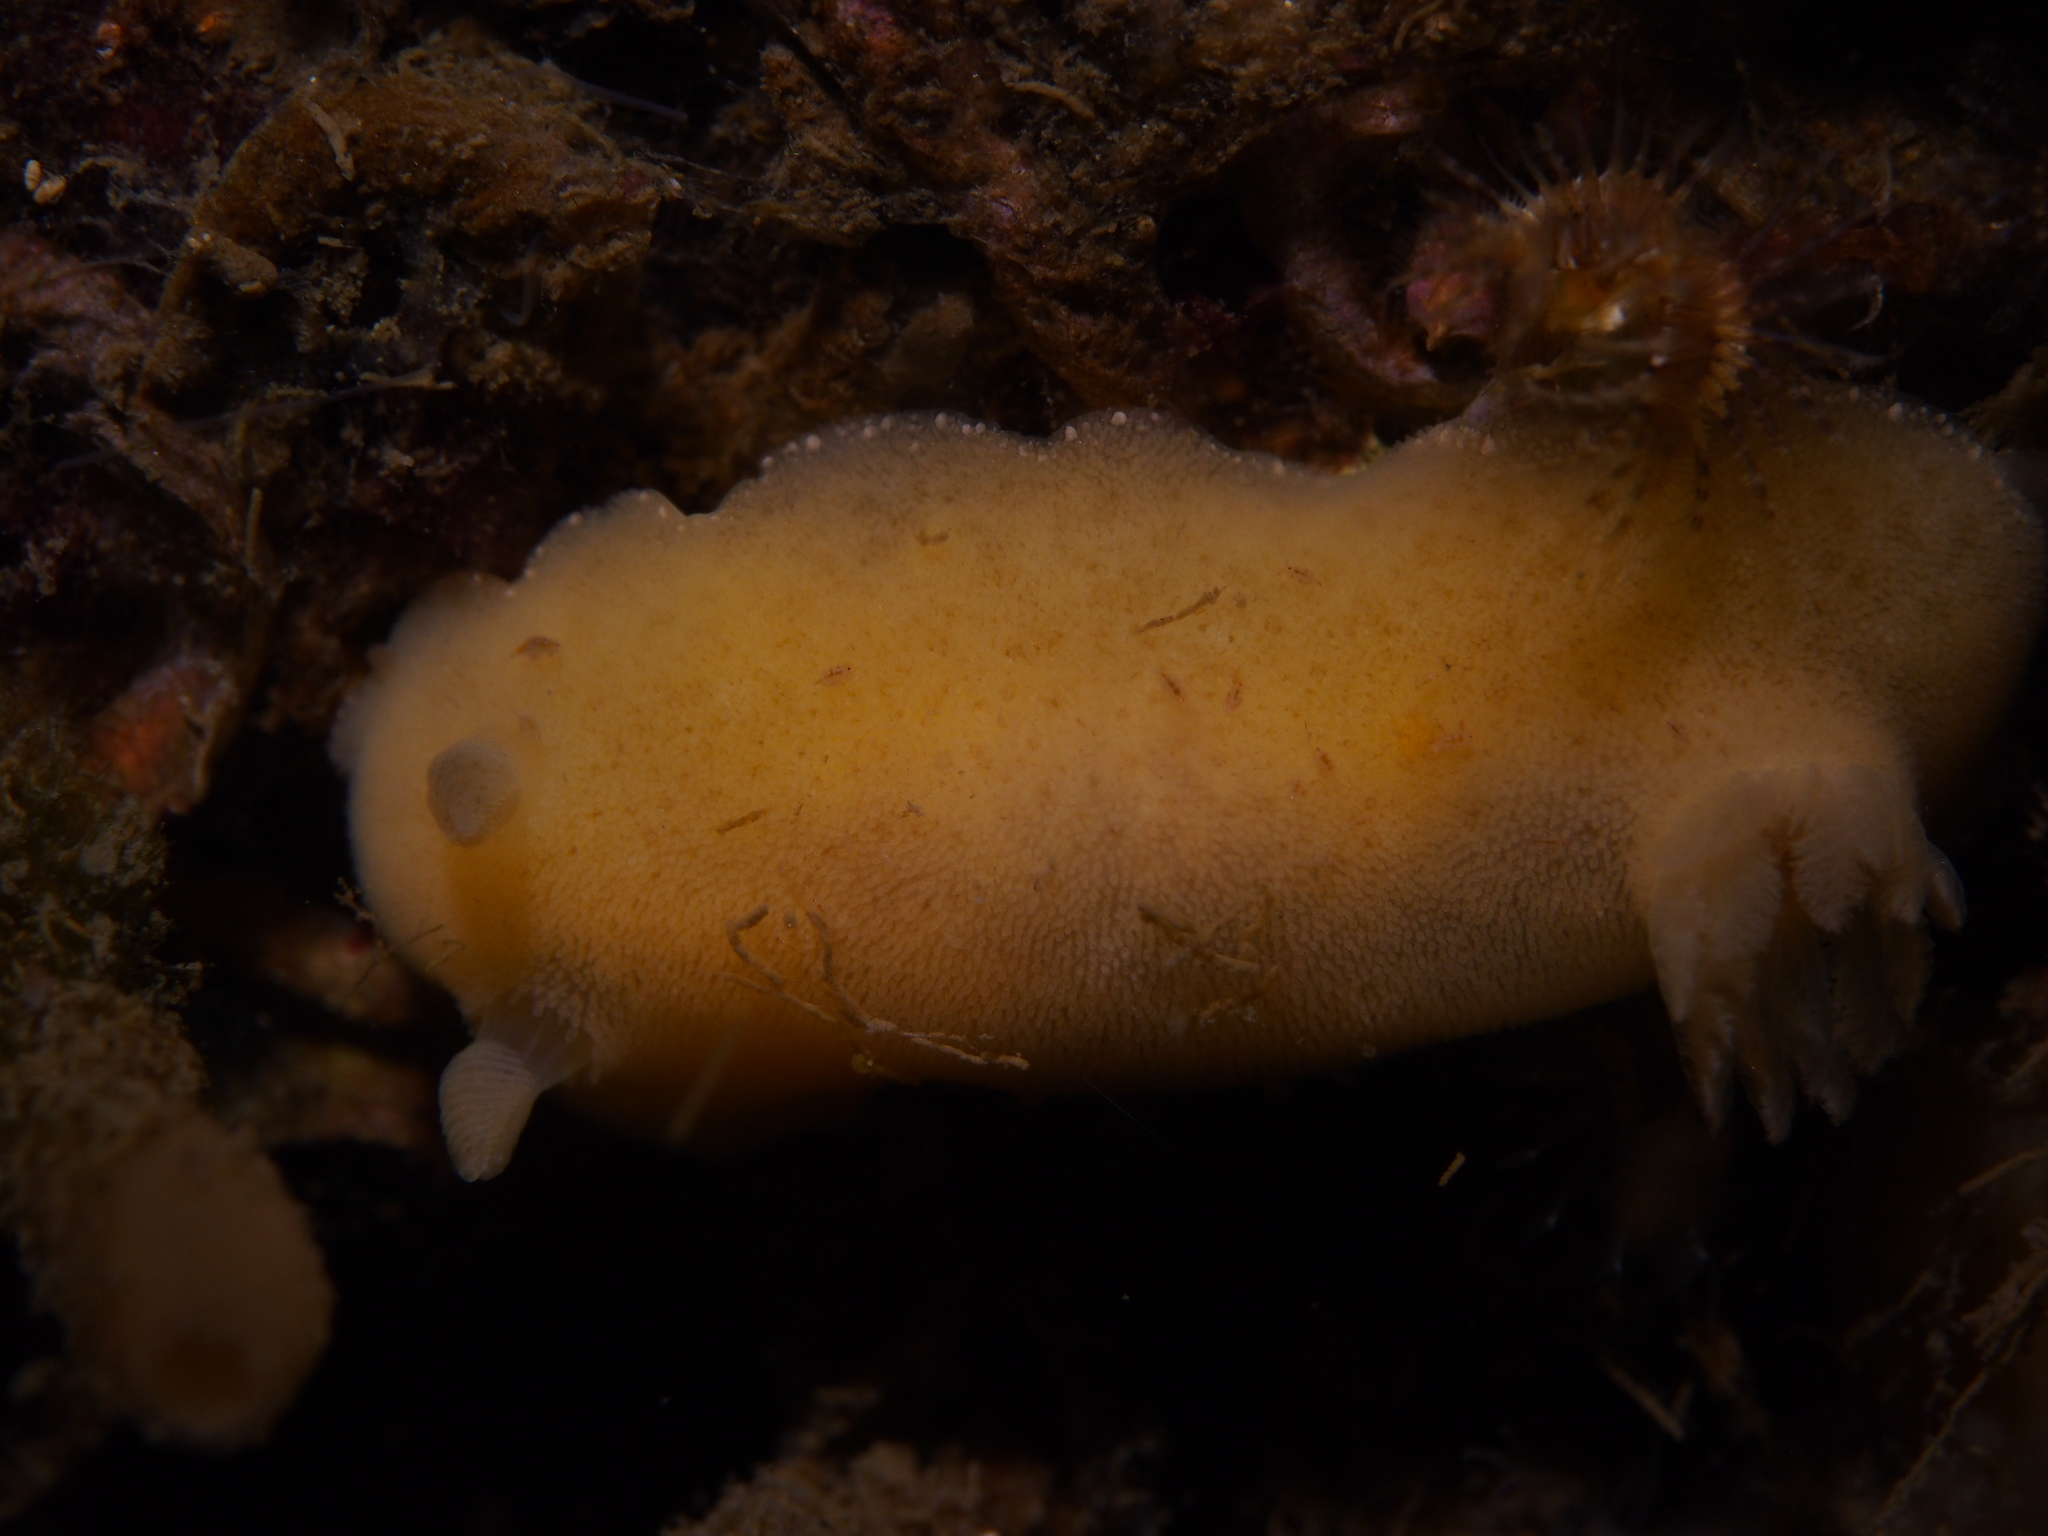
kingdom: Animalia
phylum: Mollusca
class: Gastropoda
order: Nudibranchia
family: Discodorididae
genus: Jorunna
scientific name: Jorunna tomentosa
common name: Grey sea slug
